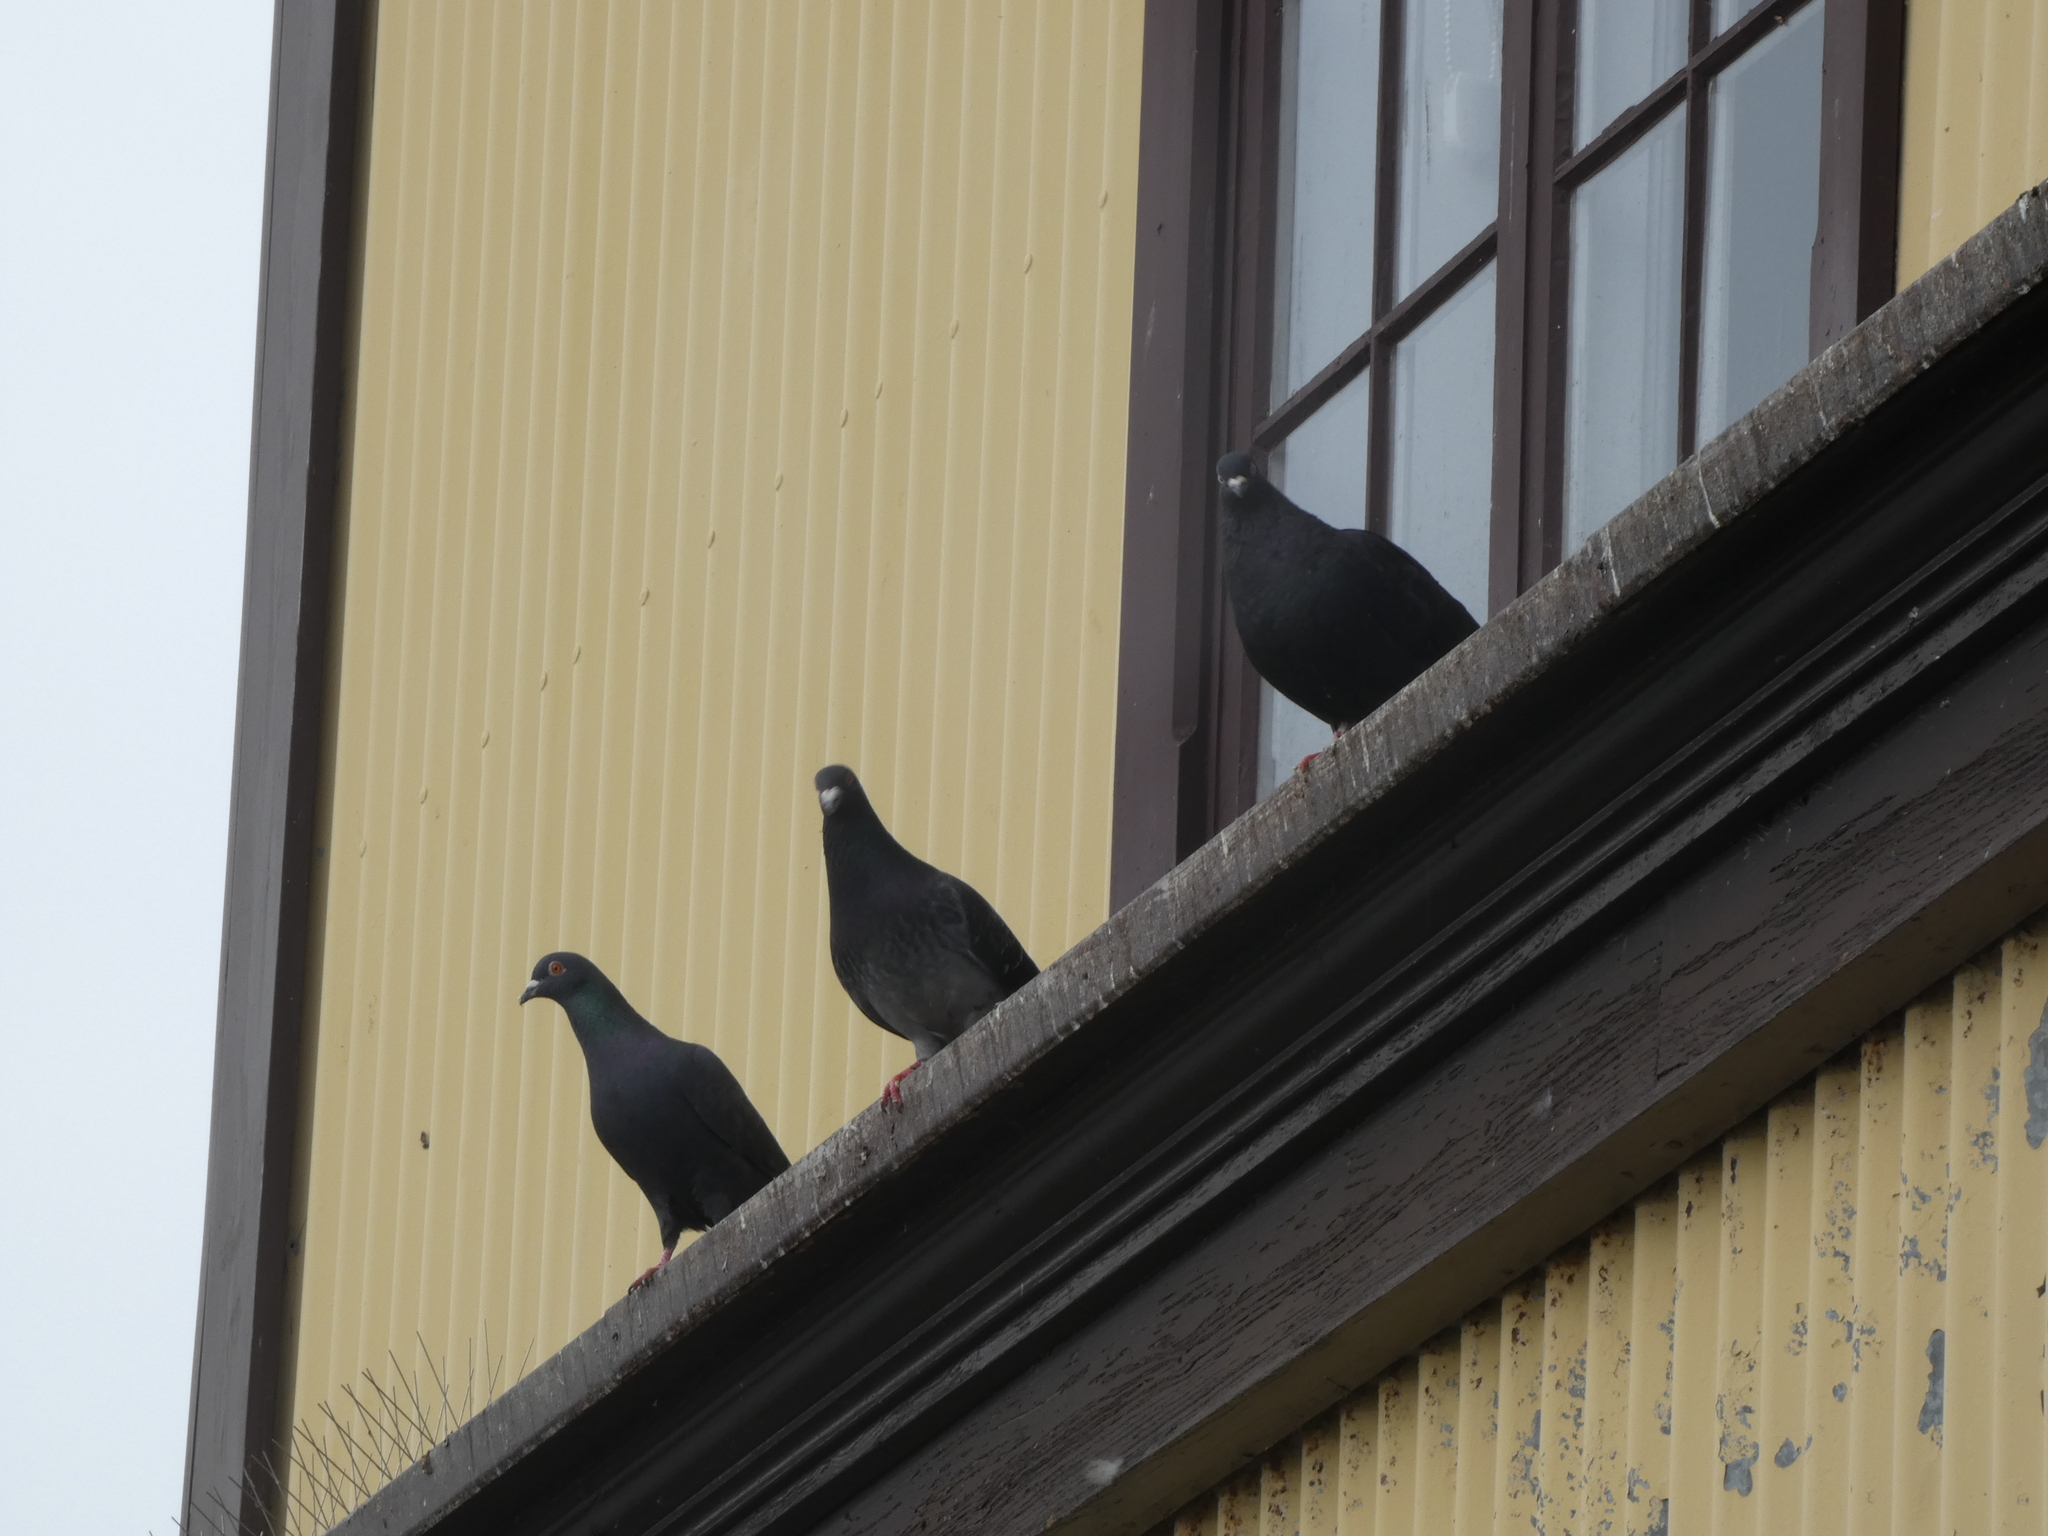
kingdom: Animalia
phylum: Chordata
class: Aves
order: Columbiformes
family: Columbidae
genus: Columba
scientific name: Columba livia
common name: Rock pigeon
